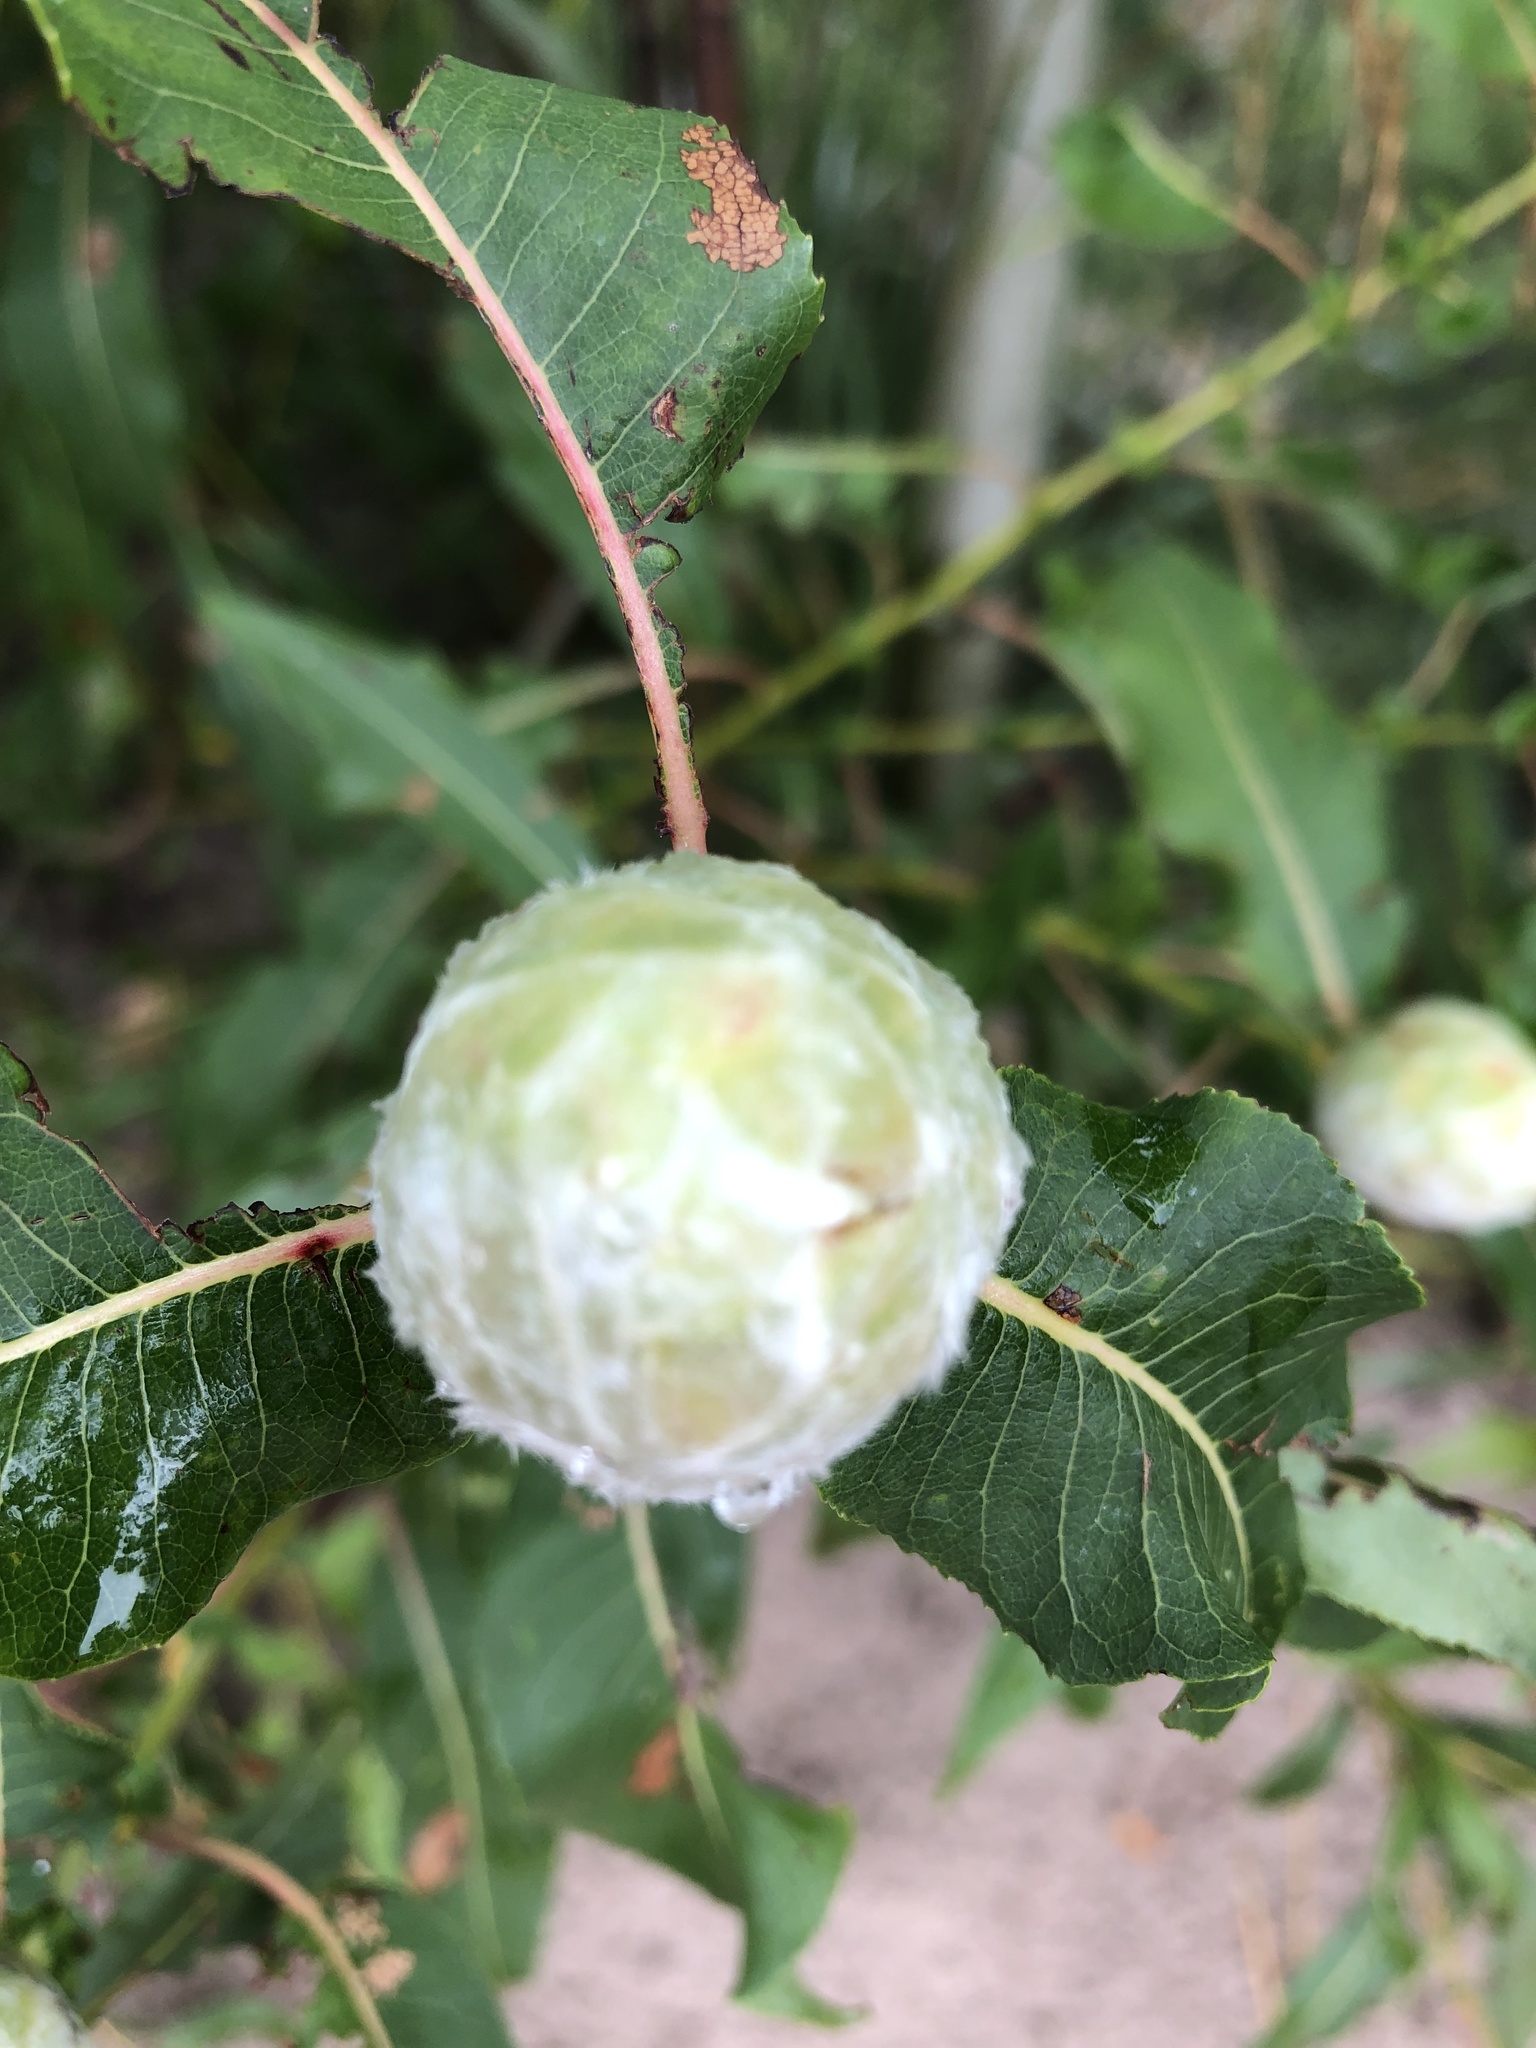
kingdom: Animalia
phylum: Arthropoda
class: Insecta
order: Diptera
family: Cecidomyiidae
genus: Rabdophaga
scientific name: Rabdophaga strobiloides
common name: Willow pinecone gall midge
